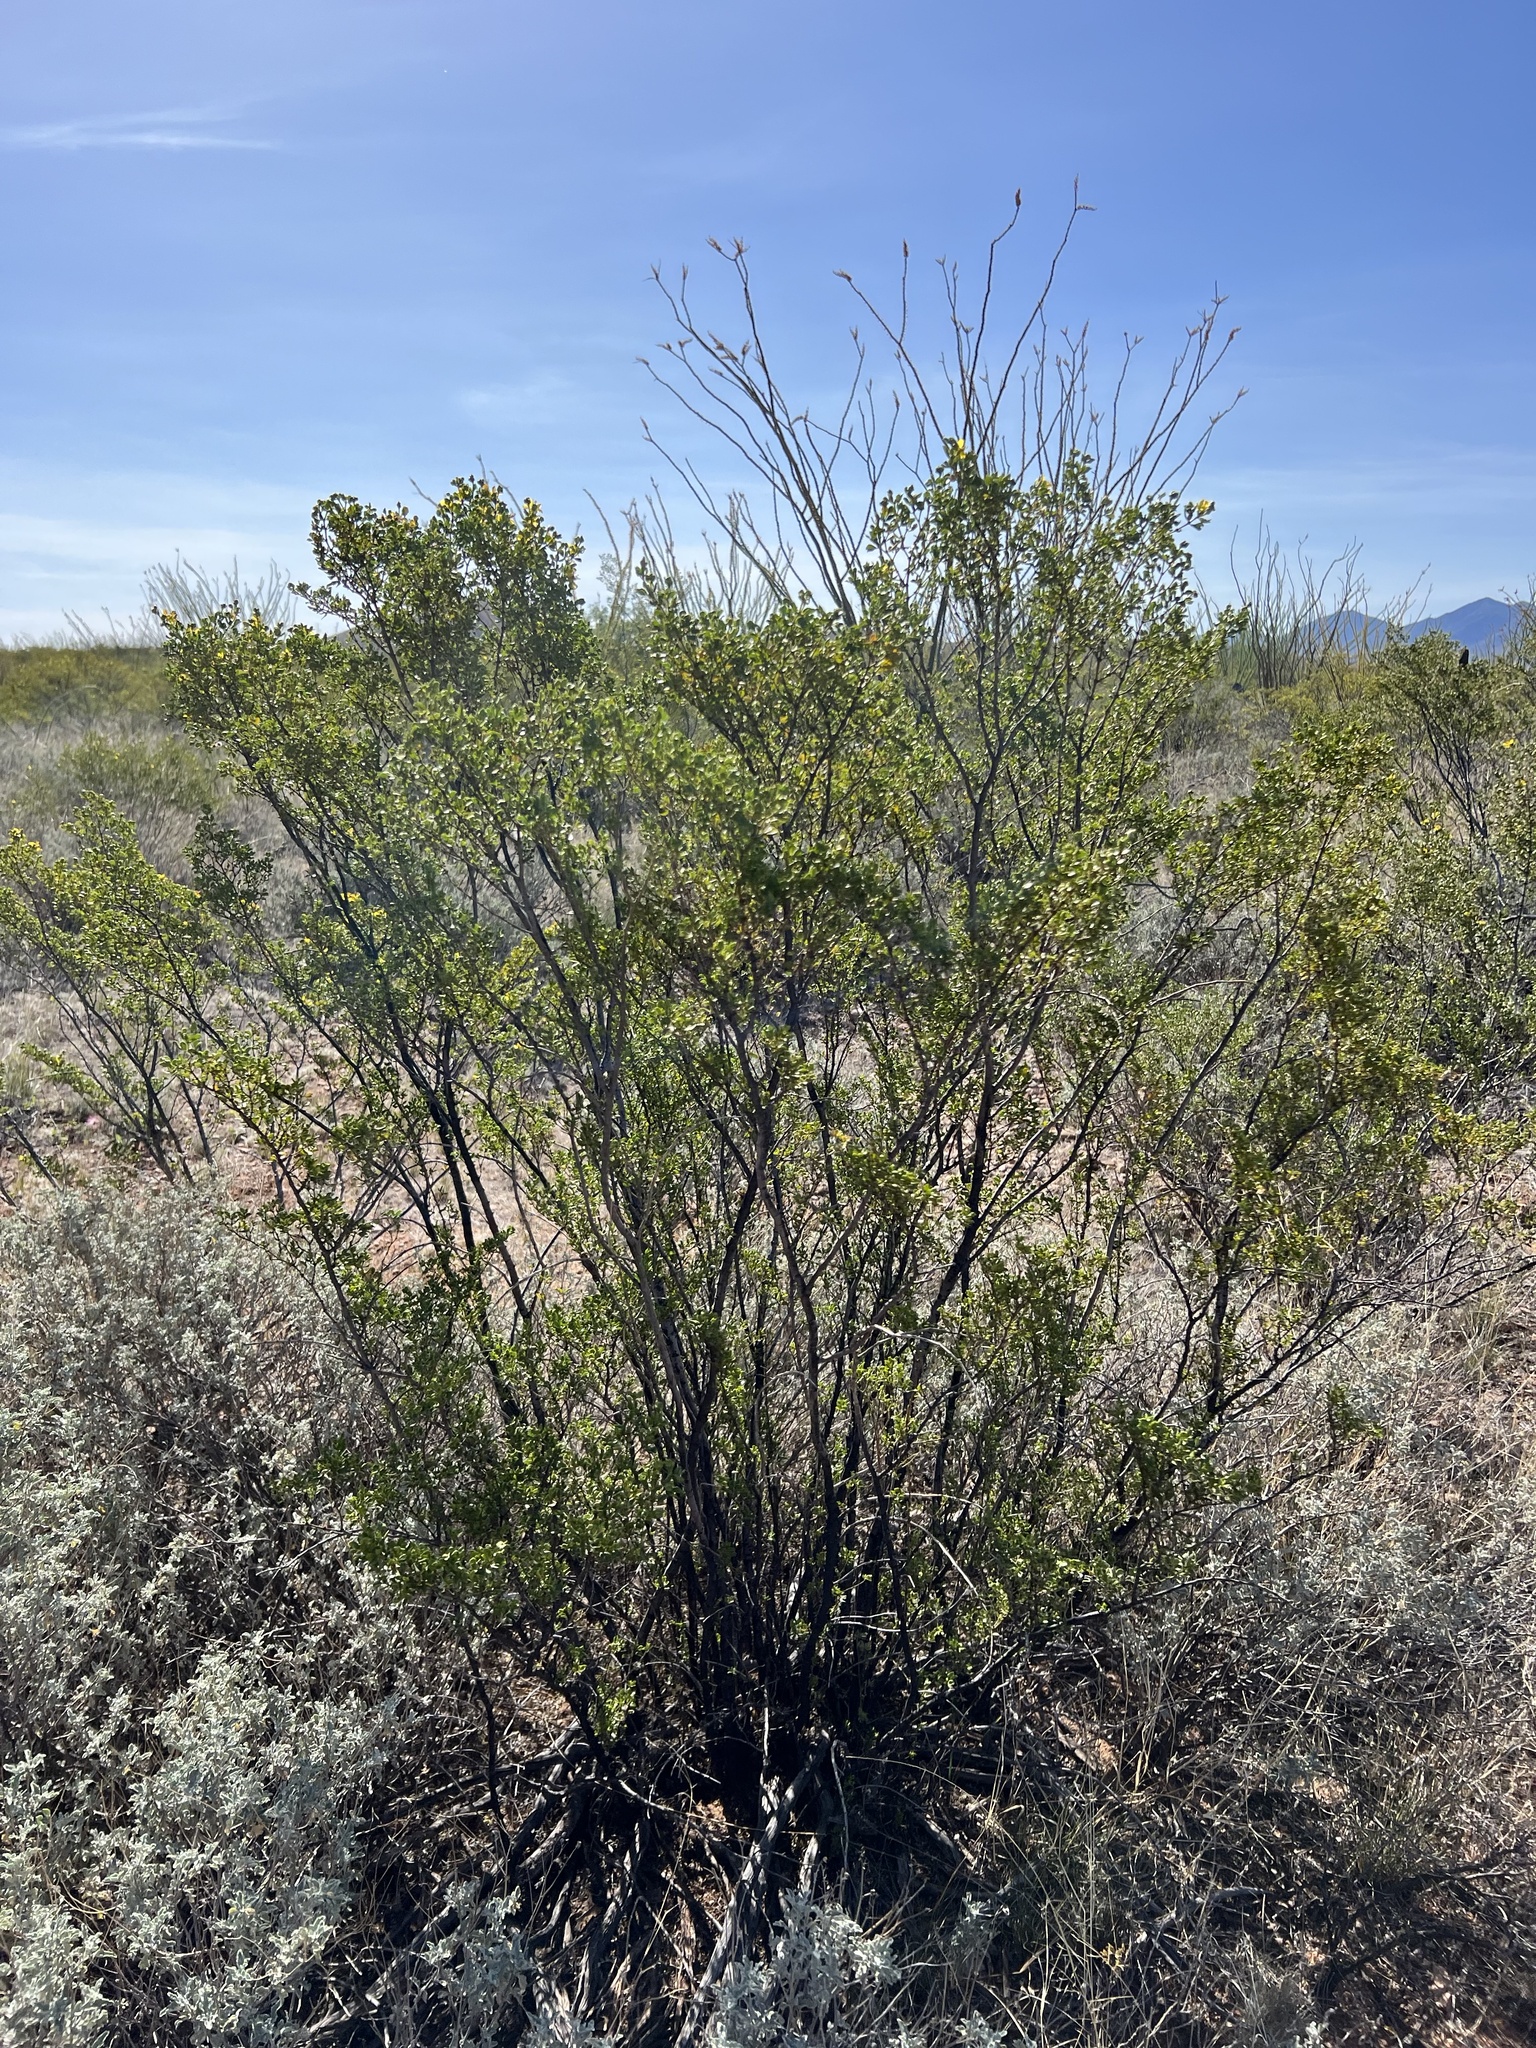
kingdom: Plantae
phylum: Tracheophyta
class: Magnoliopsida
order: Zygophyllales
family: Zygophyllaceae
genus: Larrea
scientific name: Larrea tridentata
